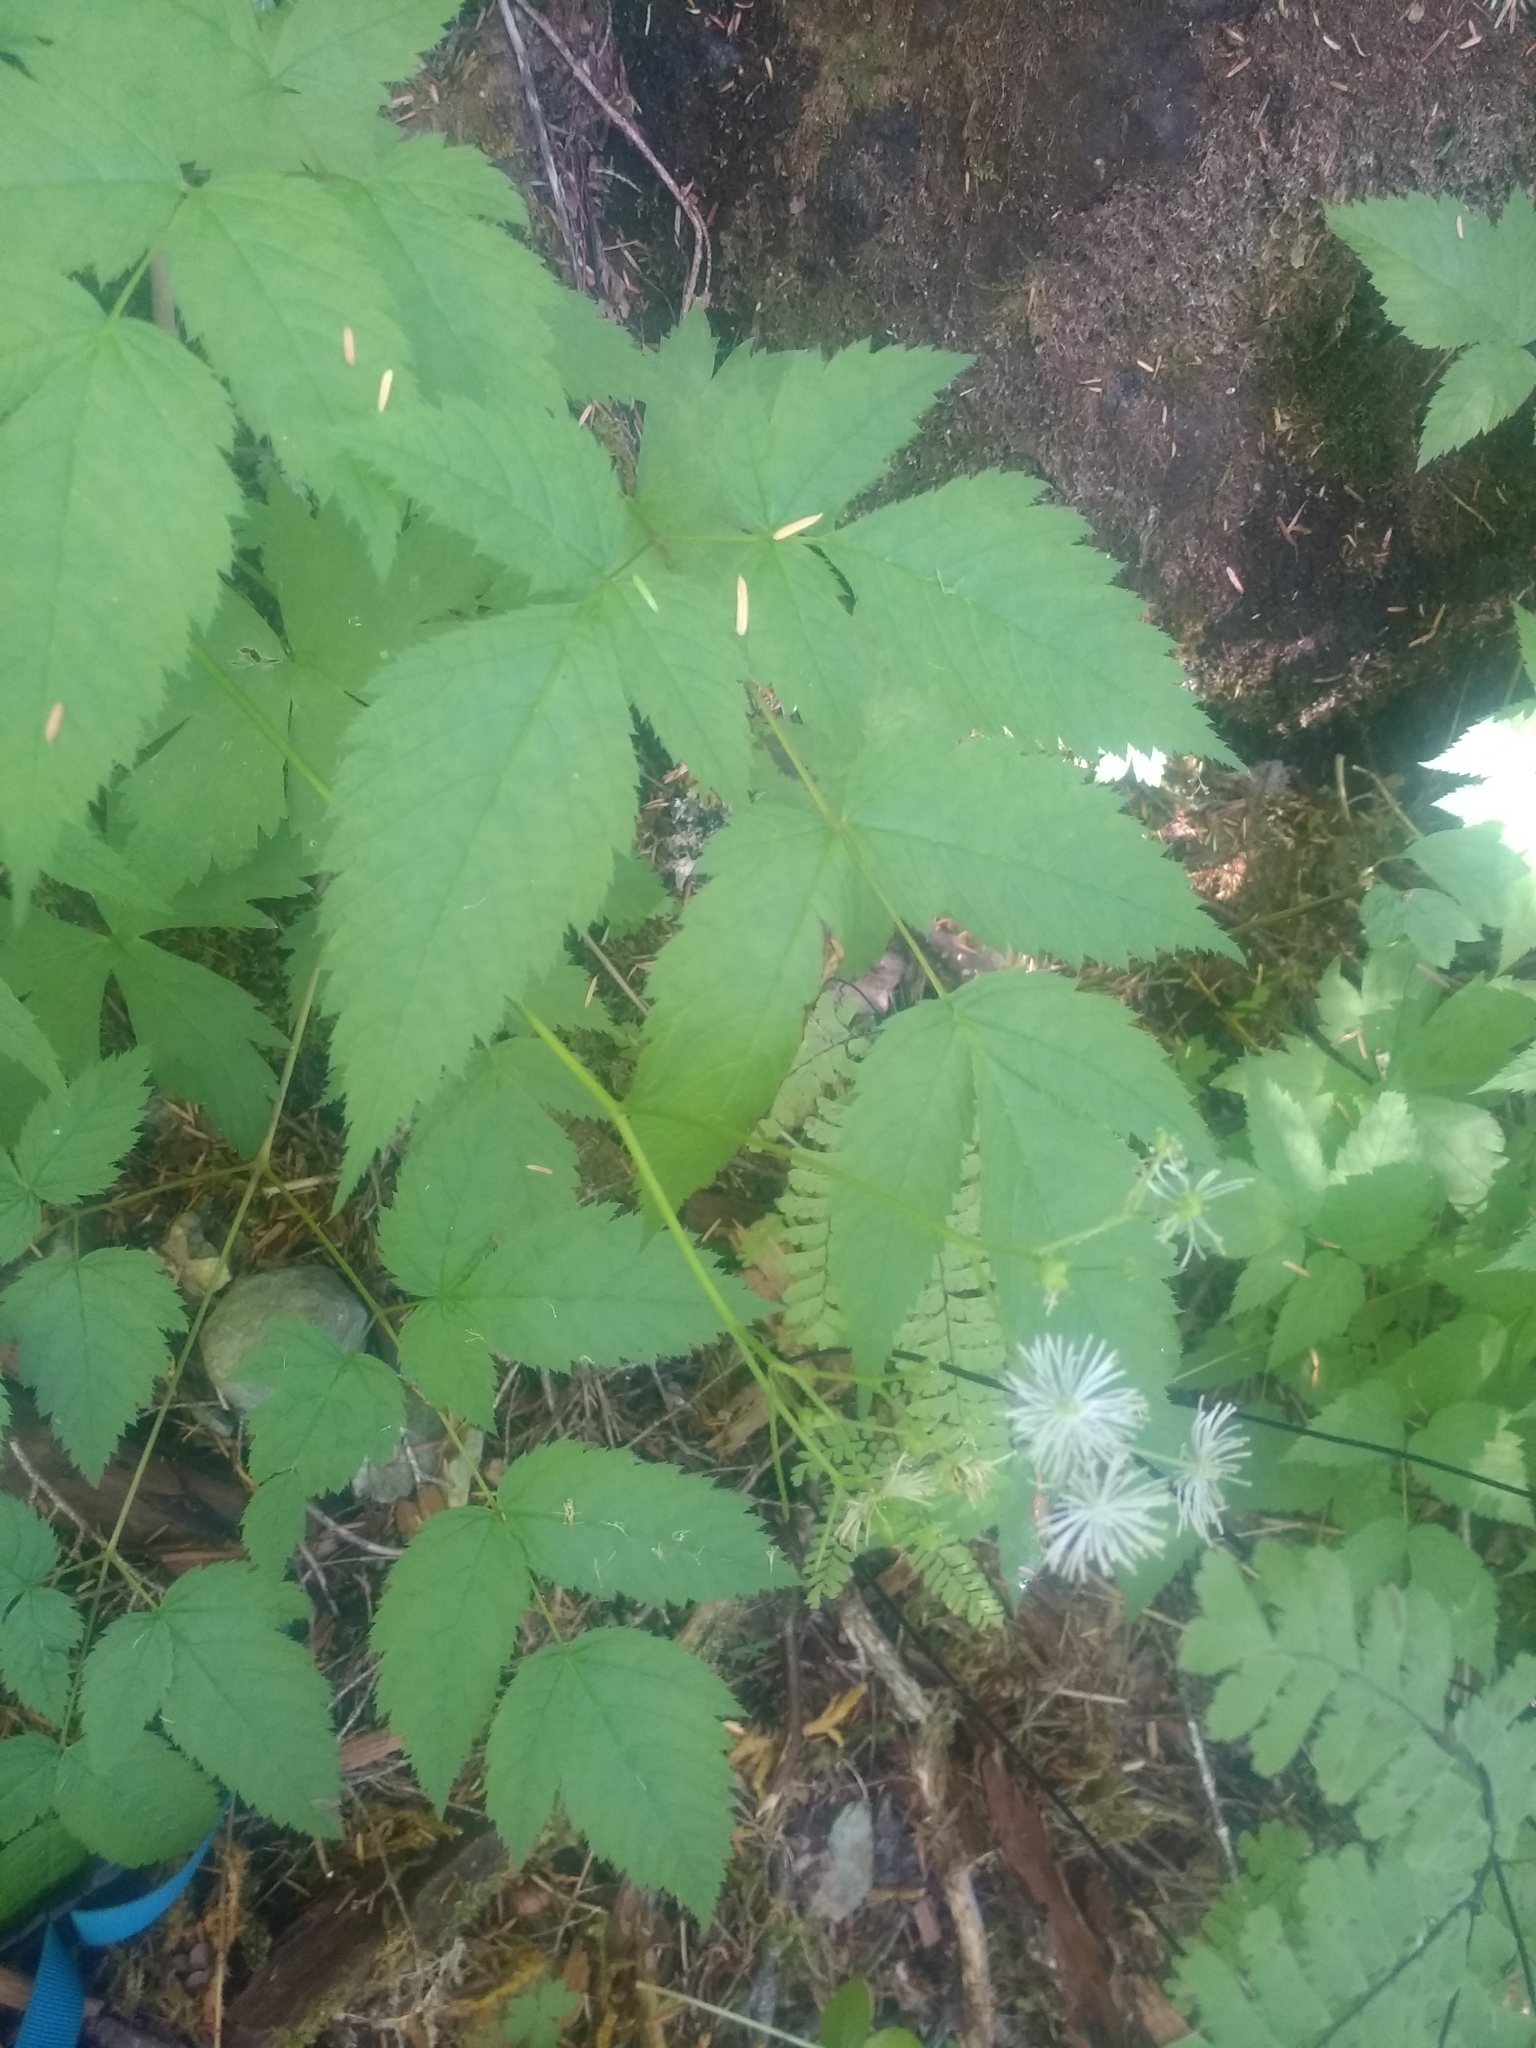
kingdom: Plantae
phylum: Tracheophyta
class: Magnoliopsida
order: Ranunculales
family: Ranunculaceae
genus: Trautvetteria
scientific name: Trautvetteria carolinensis
